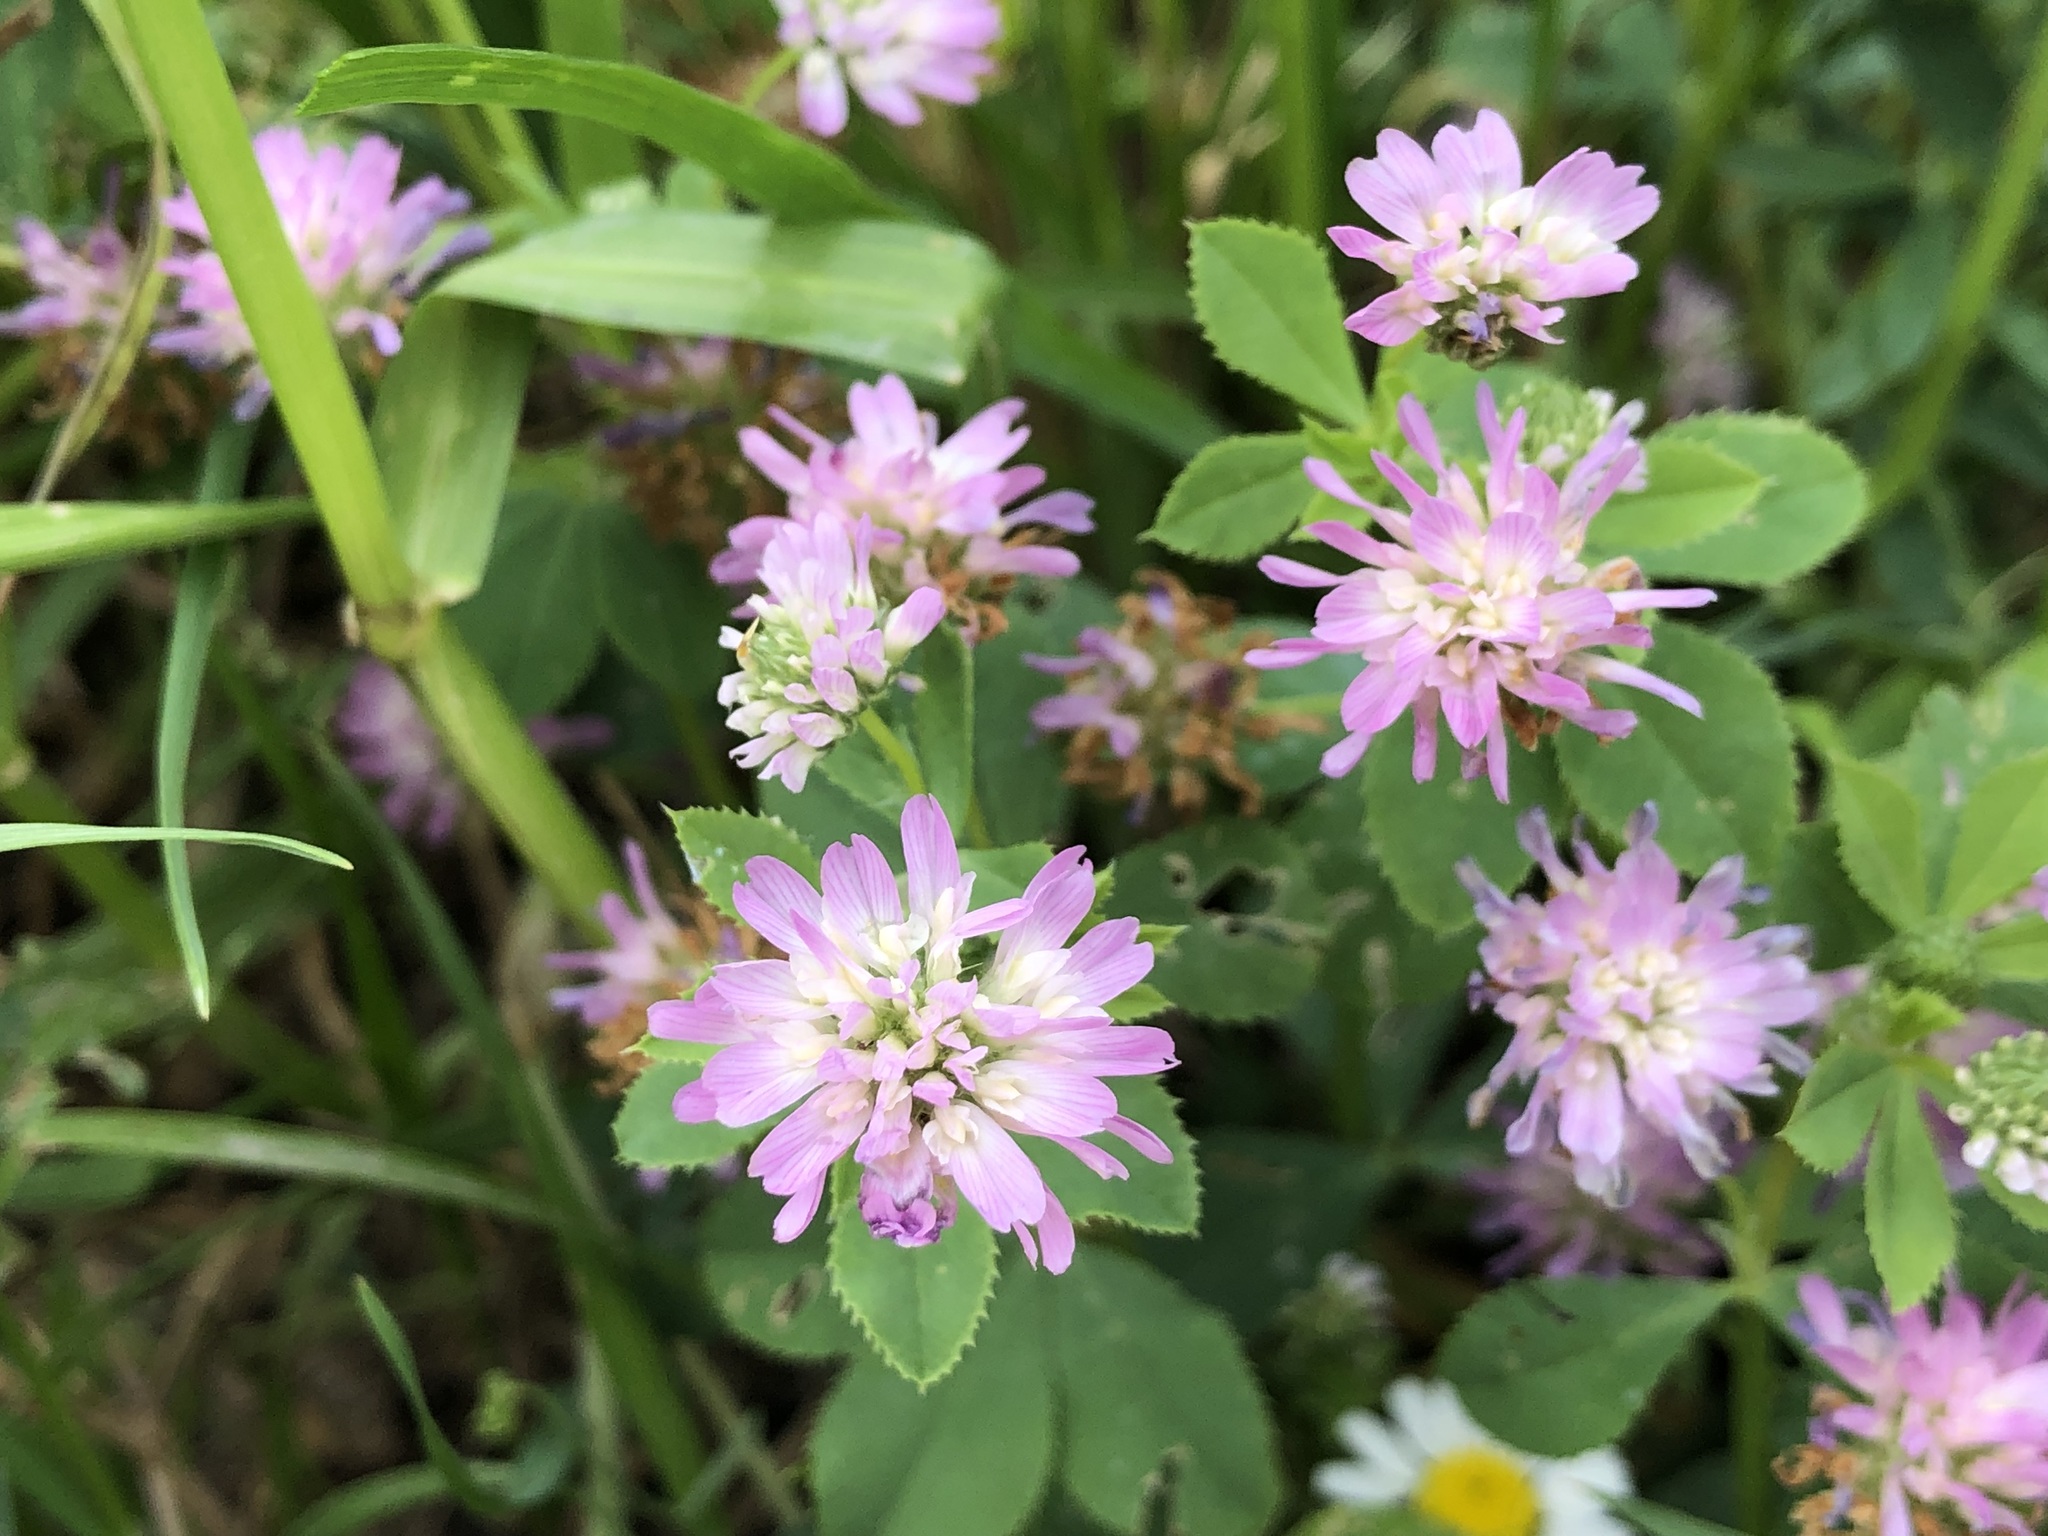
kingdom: Plantae
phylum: Tracheophyta
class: Magnoliopsida
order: Fabales
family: Fabaceae
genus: Trifolium
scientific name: Trifolium resupinatum
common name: Reversed clover
